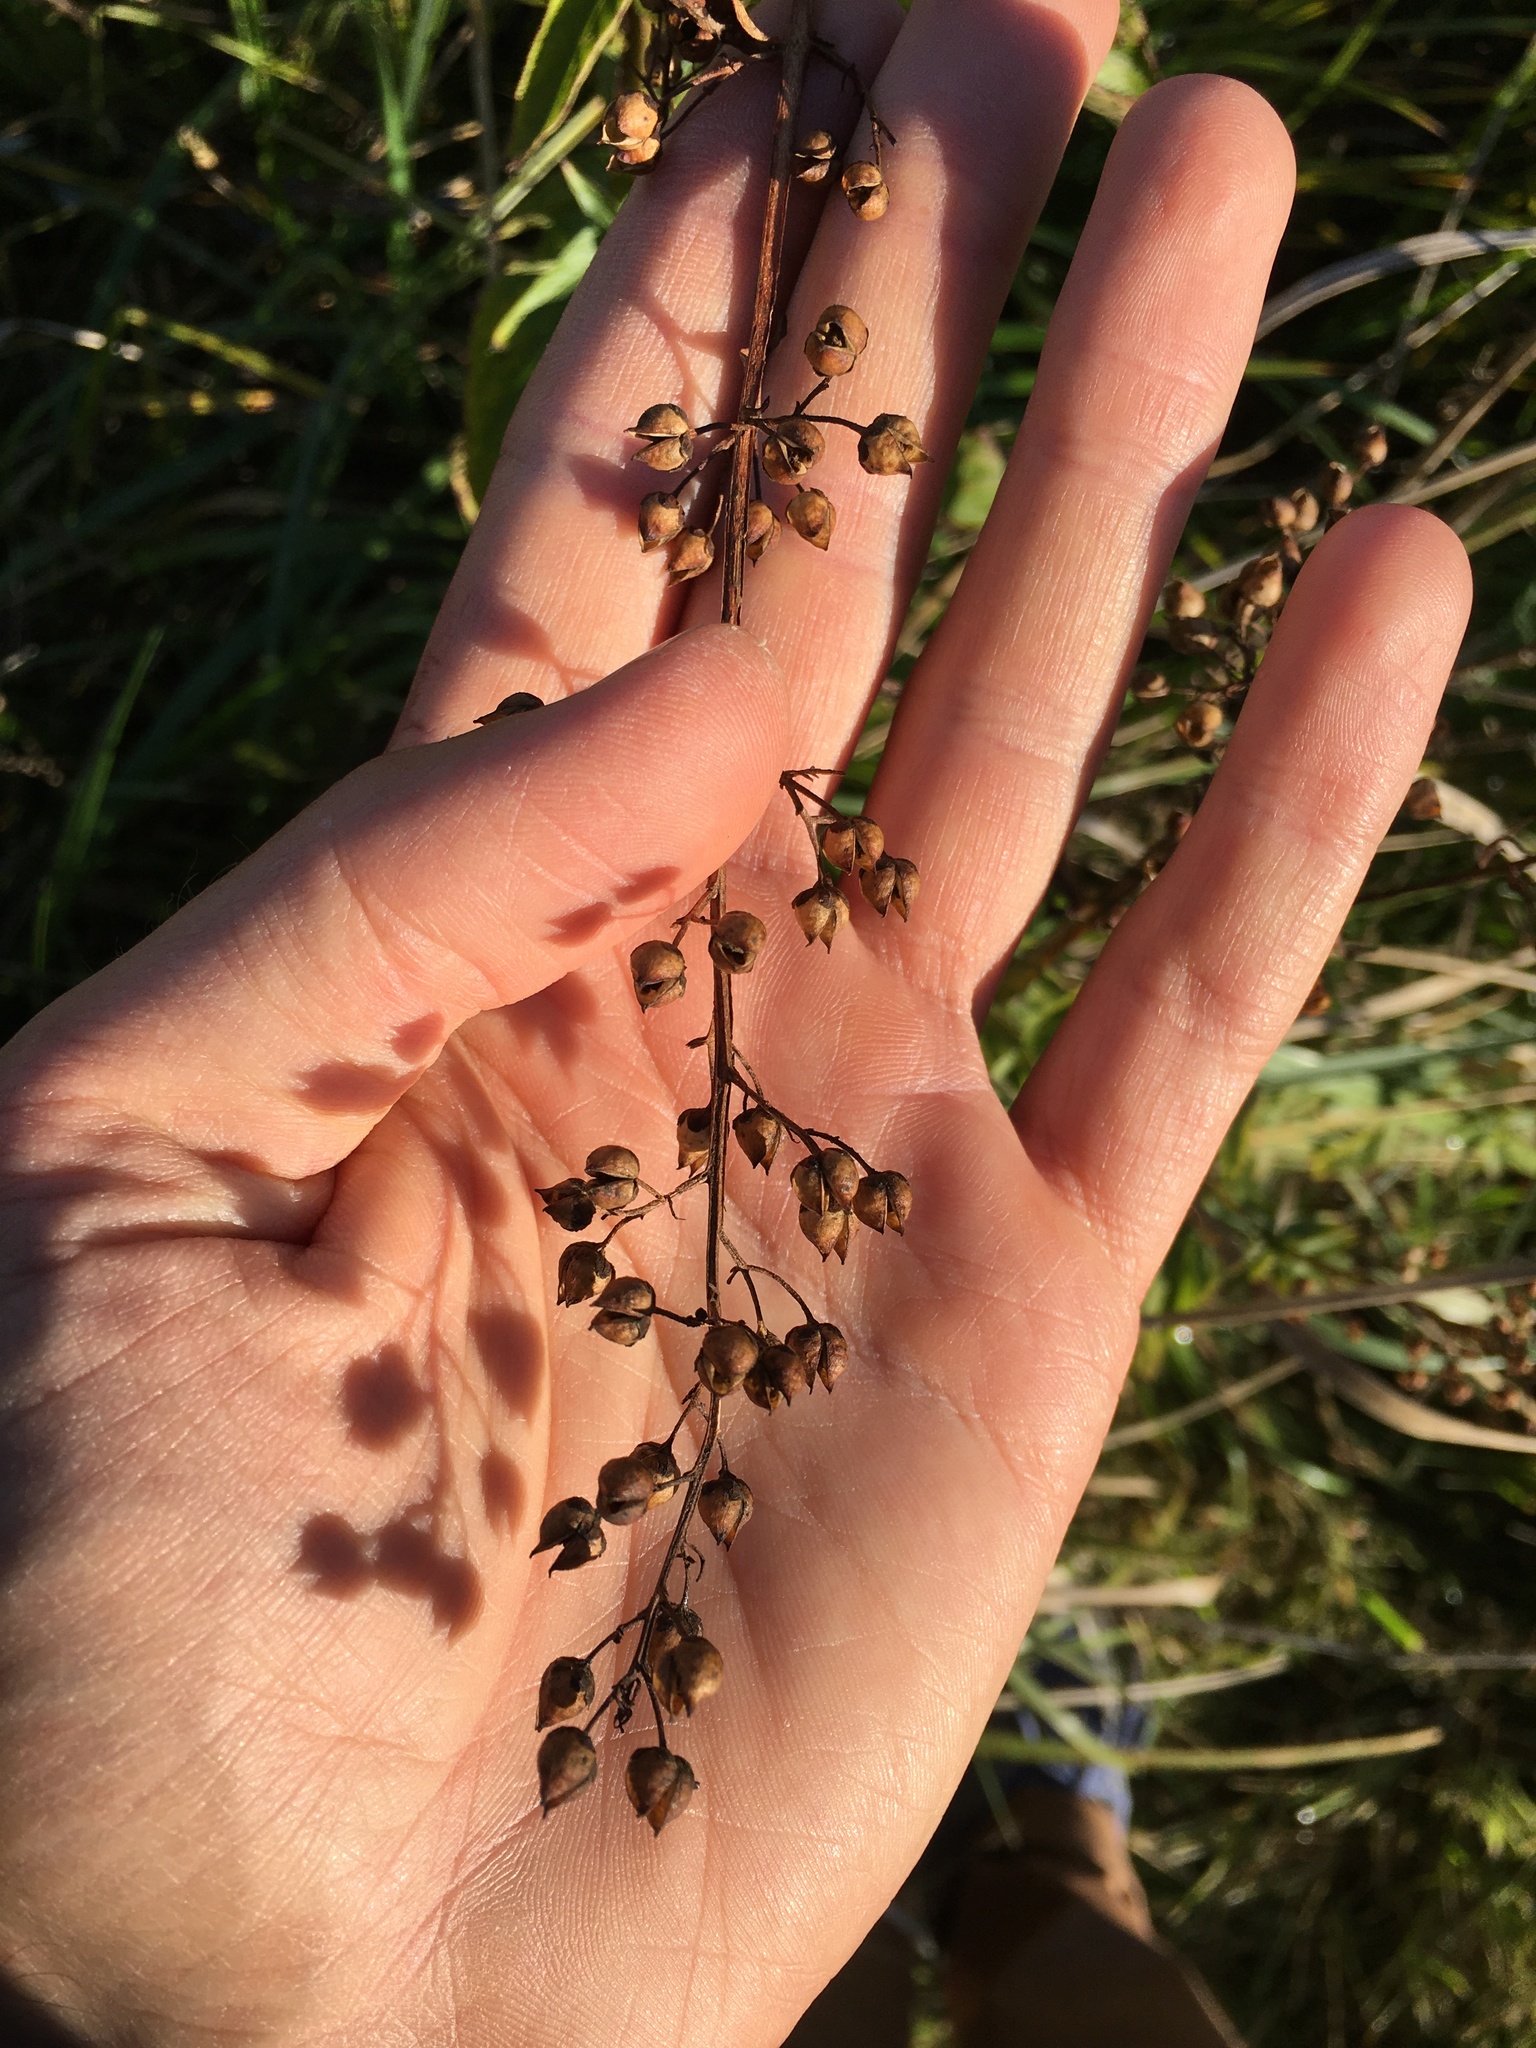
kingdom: Plantae
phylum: Tracheophyta
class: Magnoliopsida
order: Ericales
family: Primulaceae
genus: Lysimachia
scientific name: Lysimachia vulgaris
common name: Yellow loosestrife
